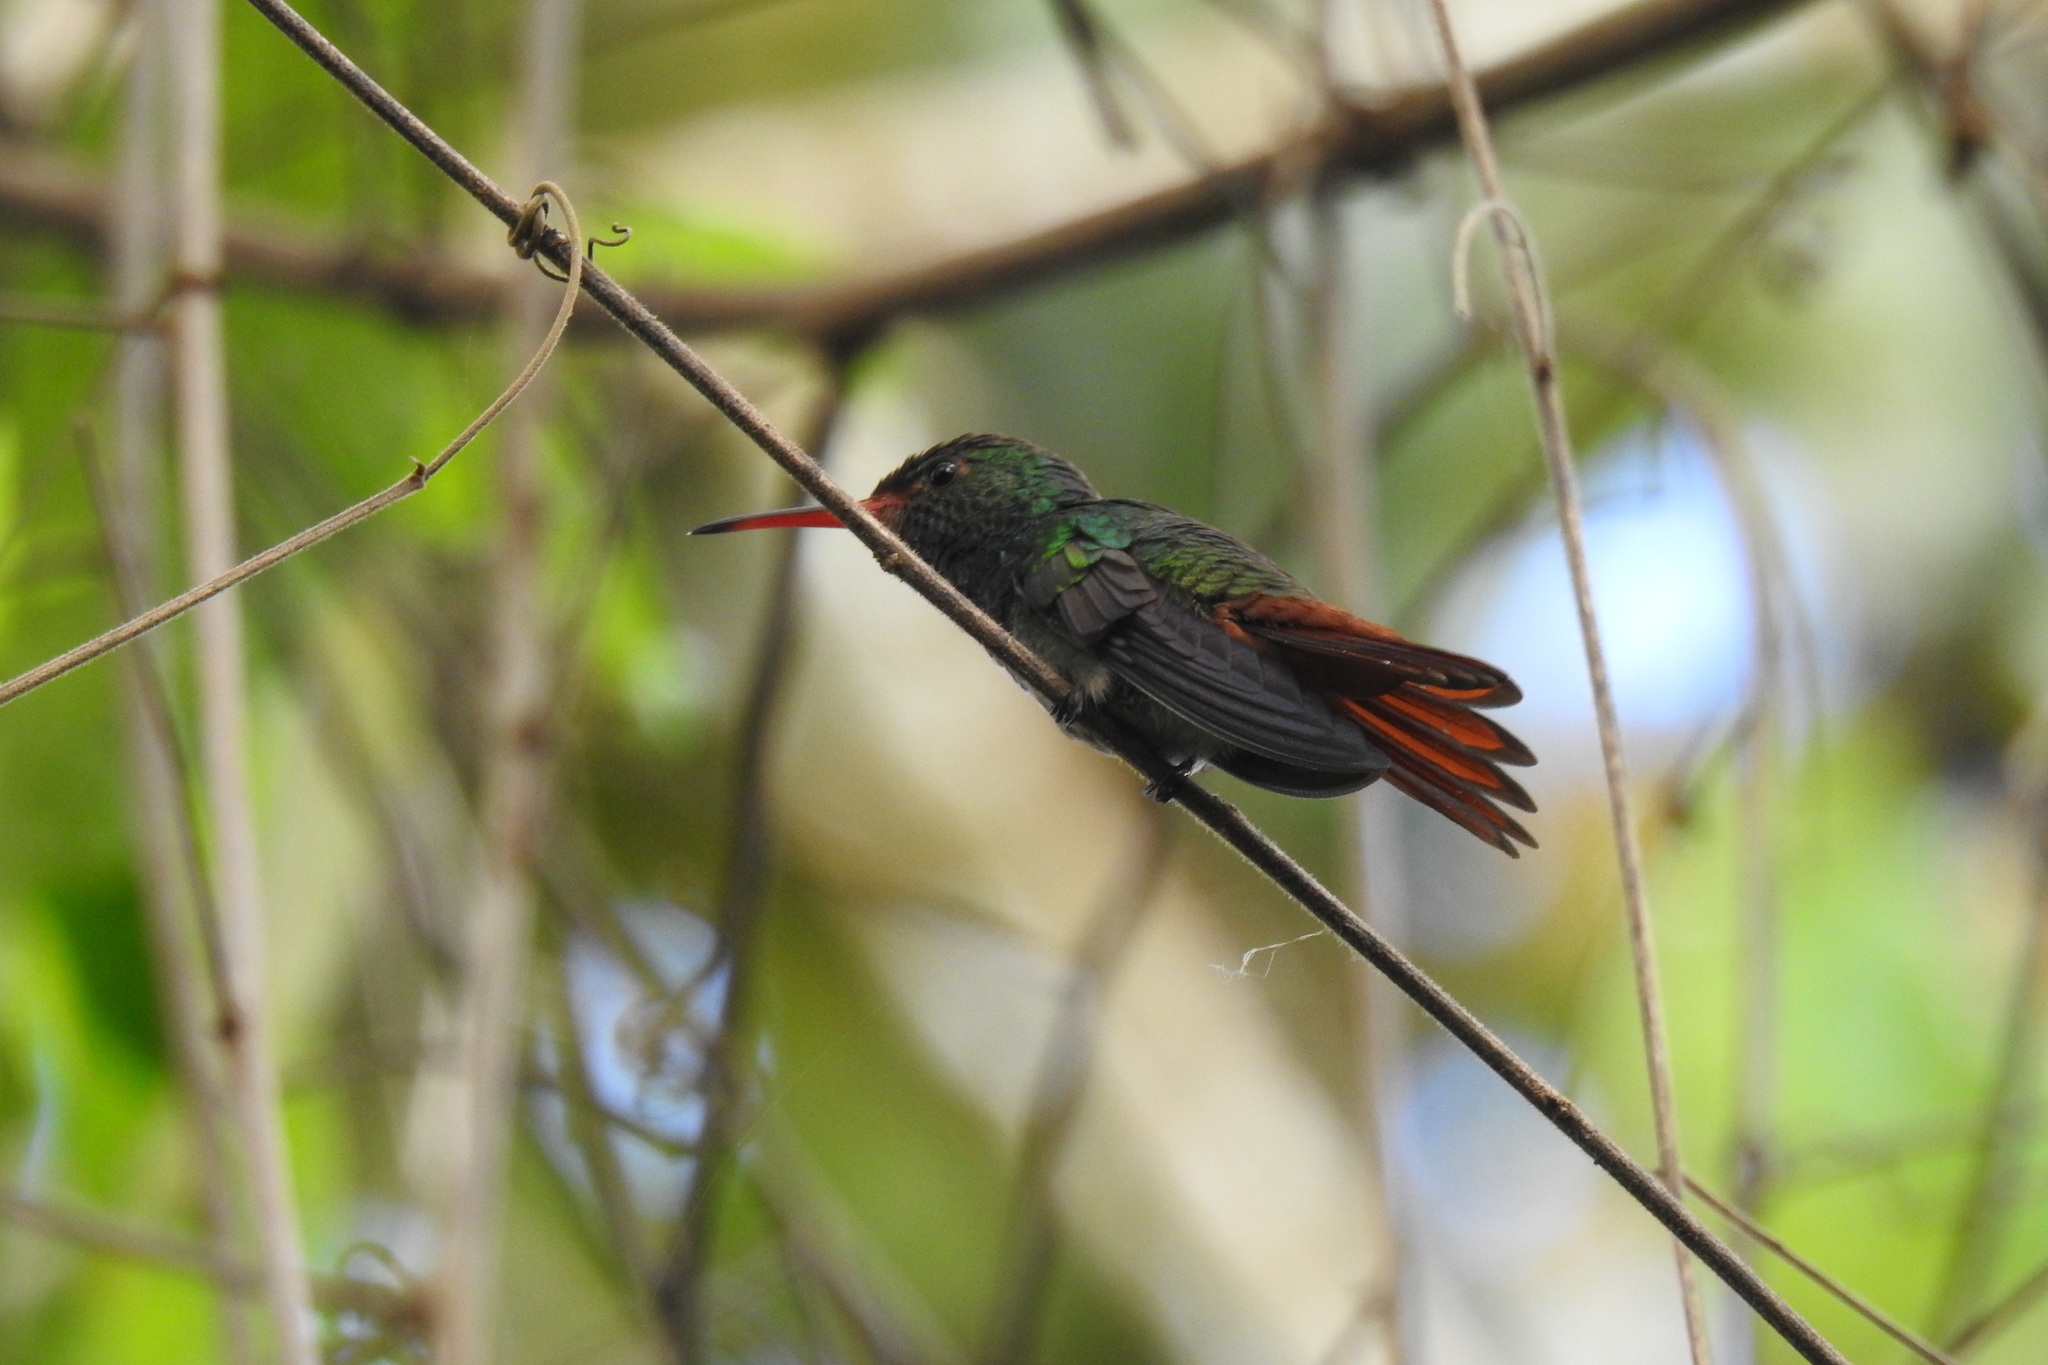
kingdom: Animalia
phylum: Chordata
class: Aves
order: Apodiformes
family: Trochilidae
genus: Amazilia
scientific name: Amazilia tzacatl
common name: Rufous-tailed hummingbird
